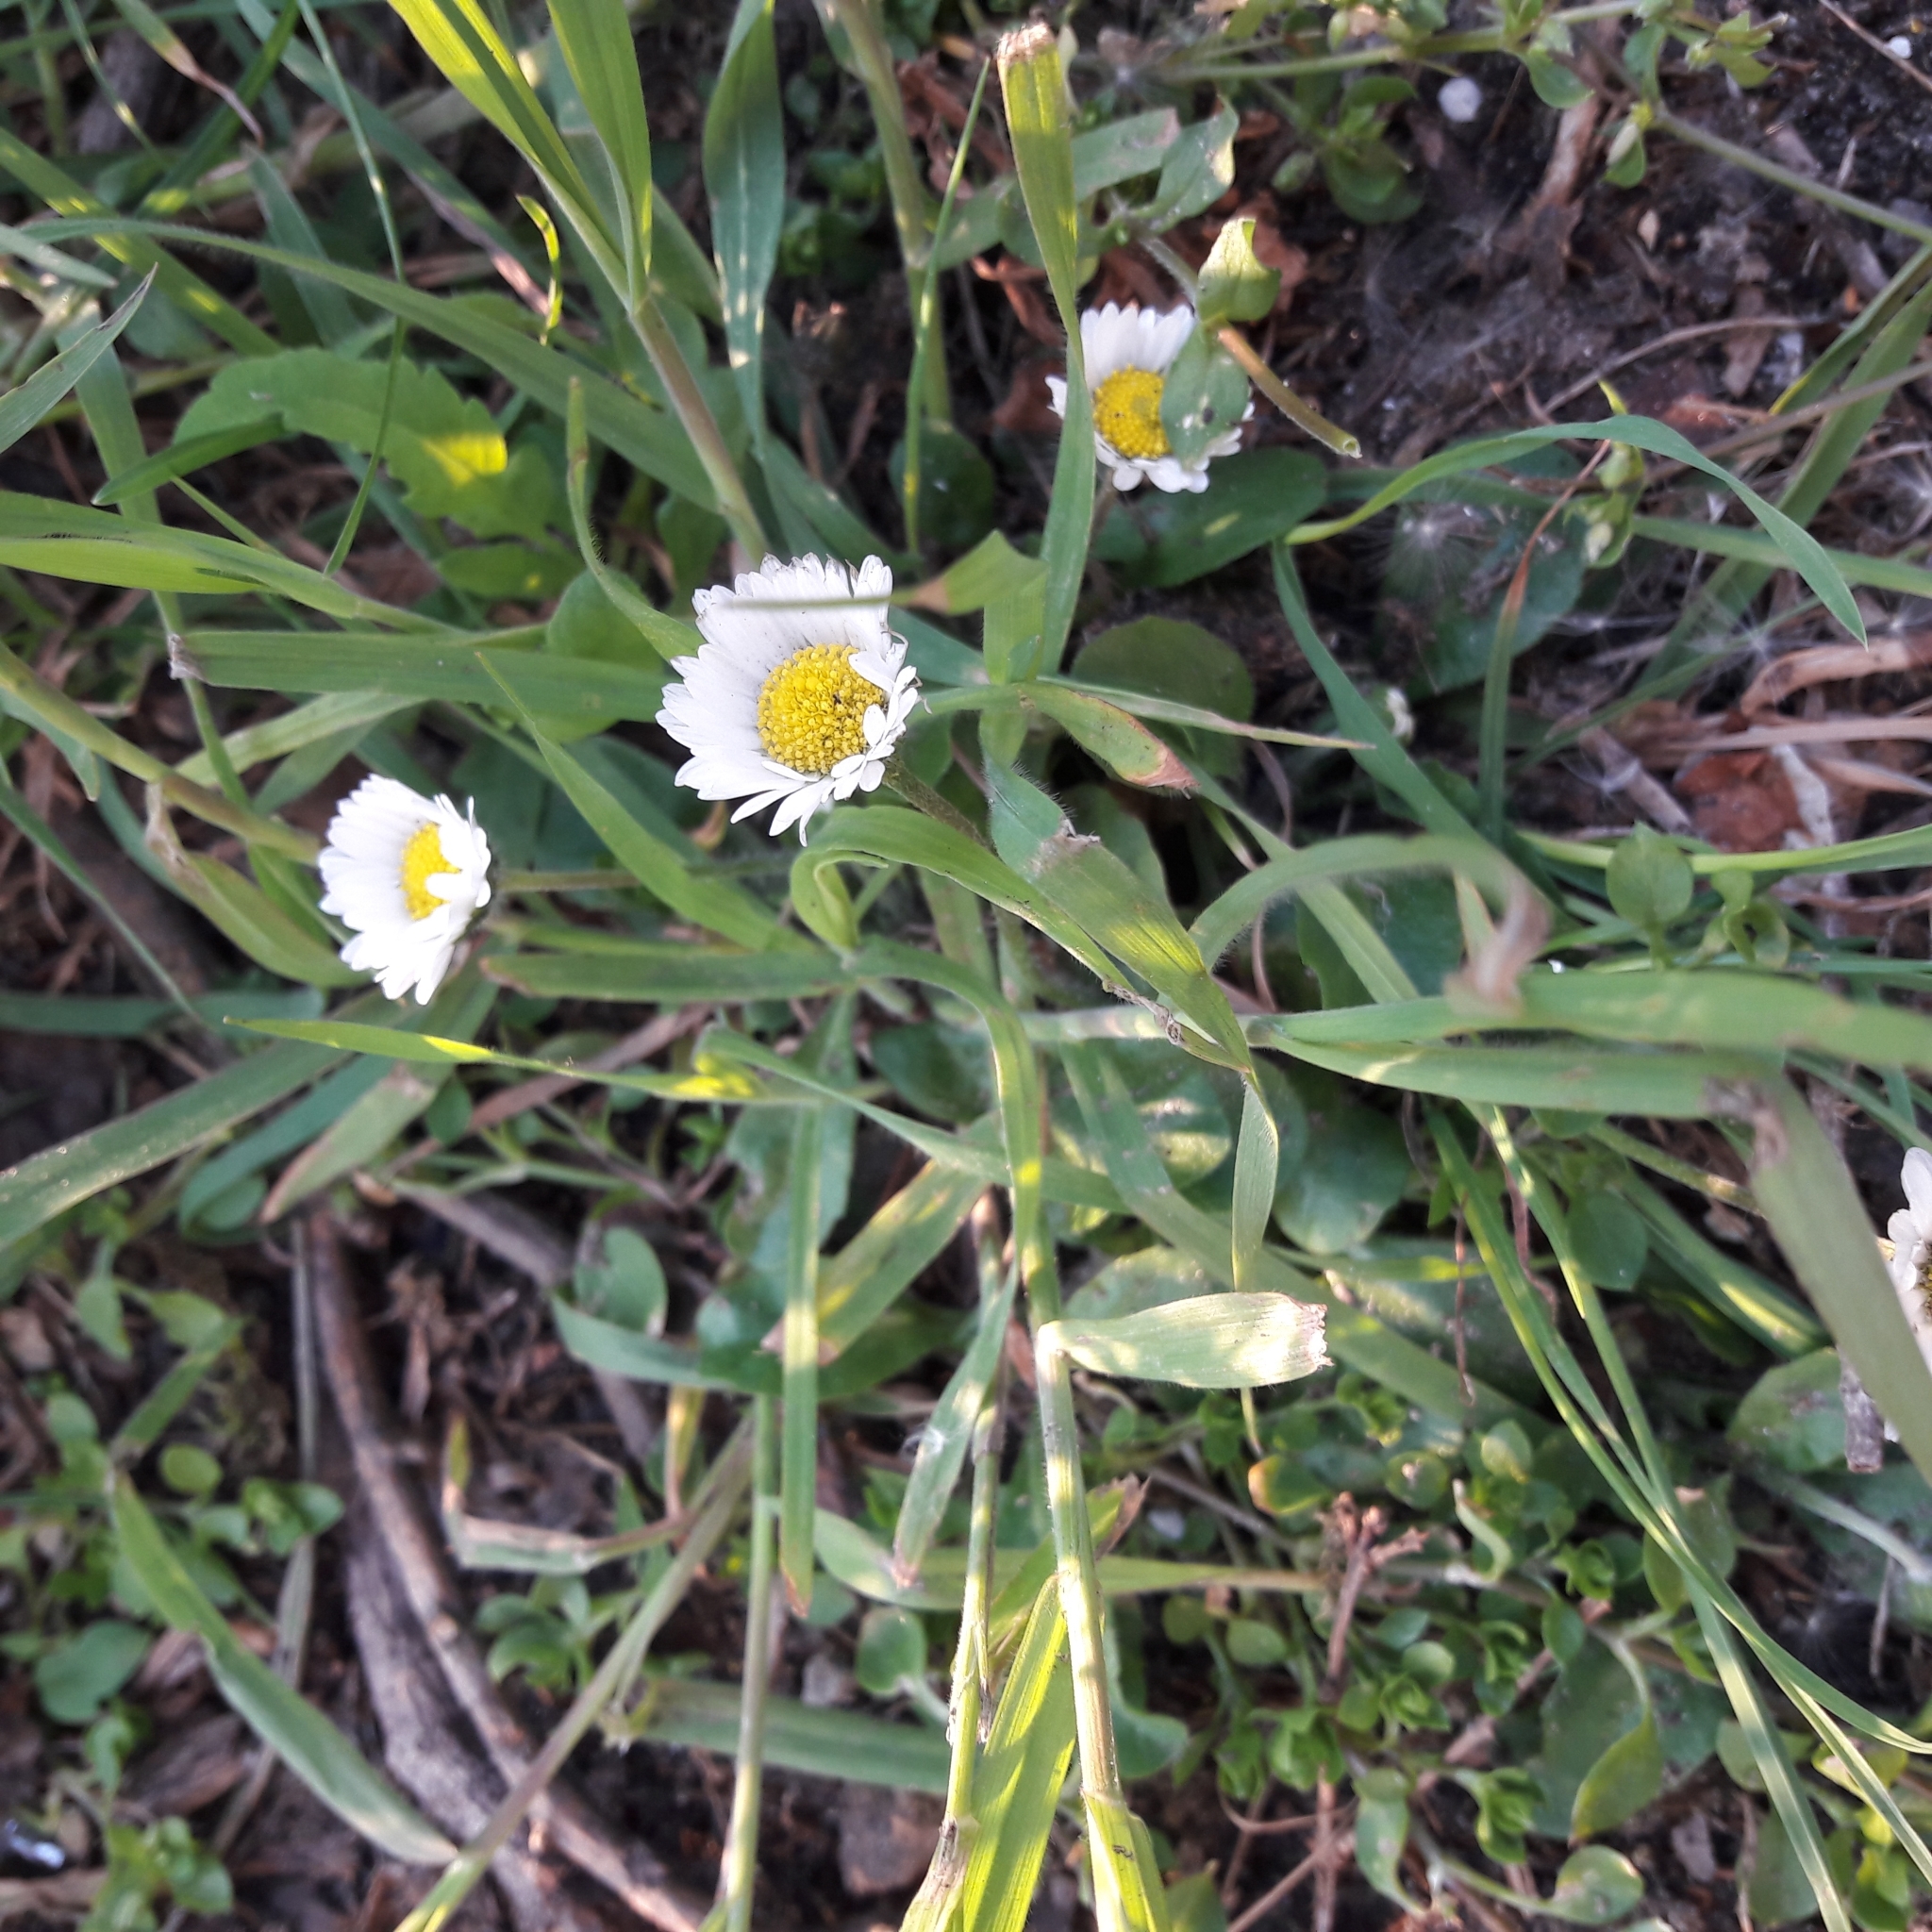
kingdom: Plantae
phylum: Tracheophyta
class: Magnoliopsida
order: Asterales
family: Asteraceae
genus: Bellis
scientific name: Bellis perennis
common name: Lawndaisy
